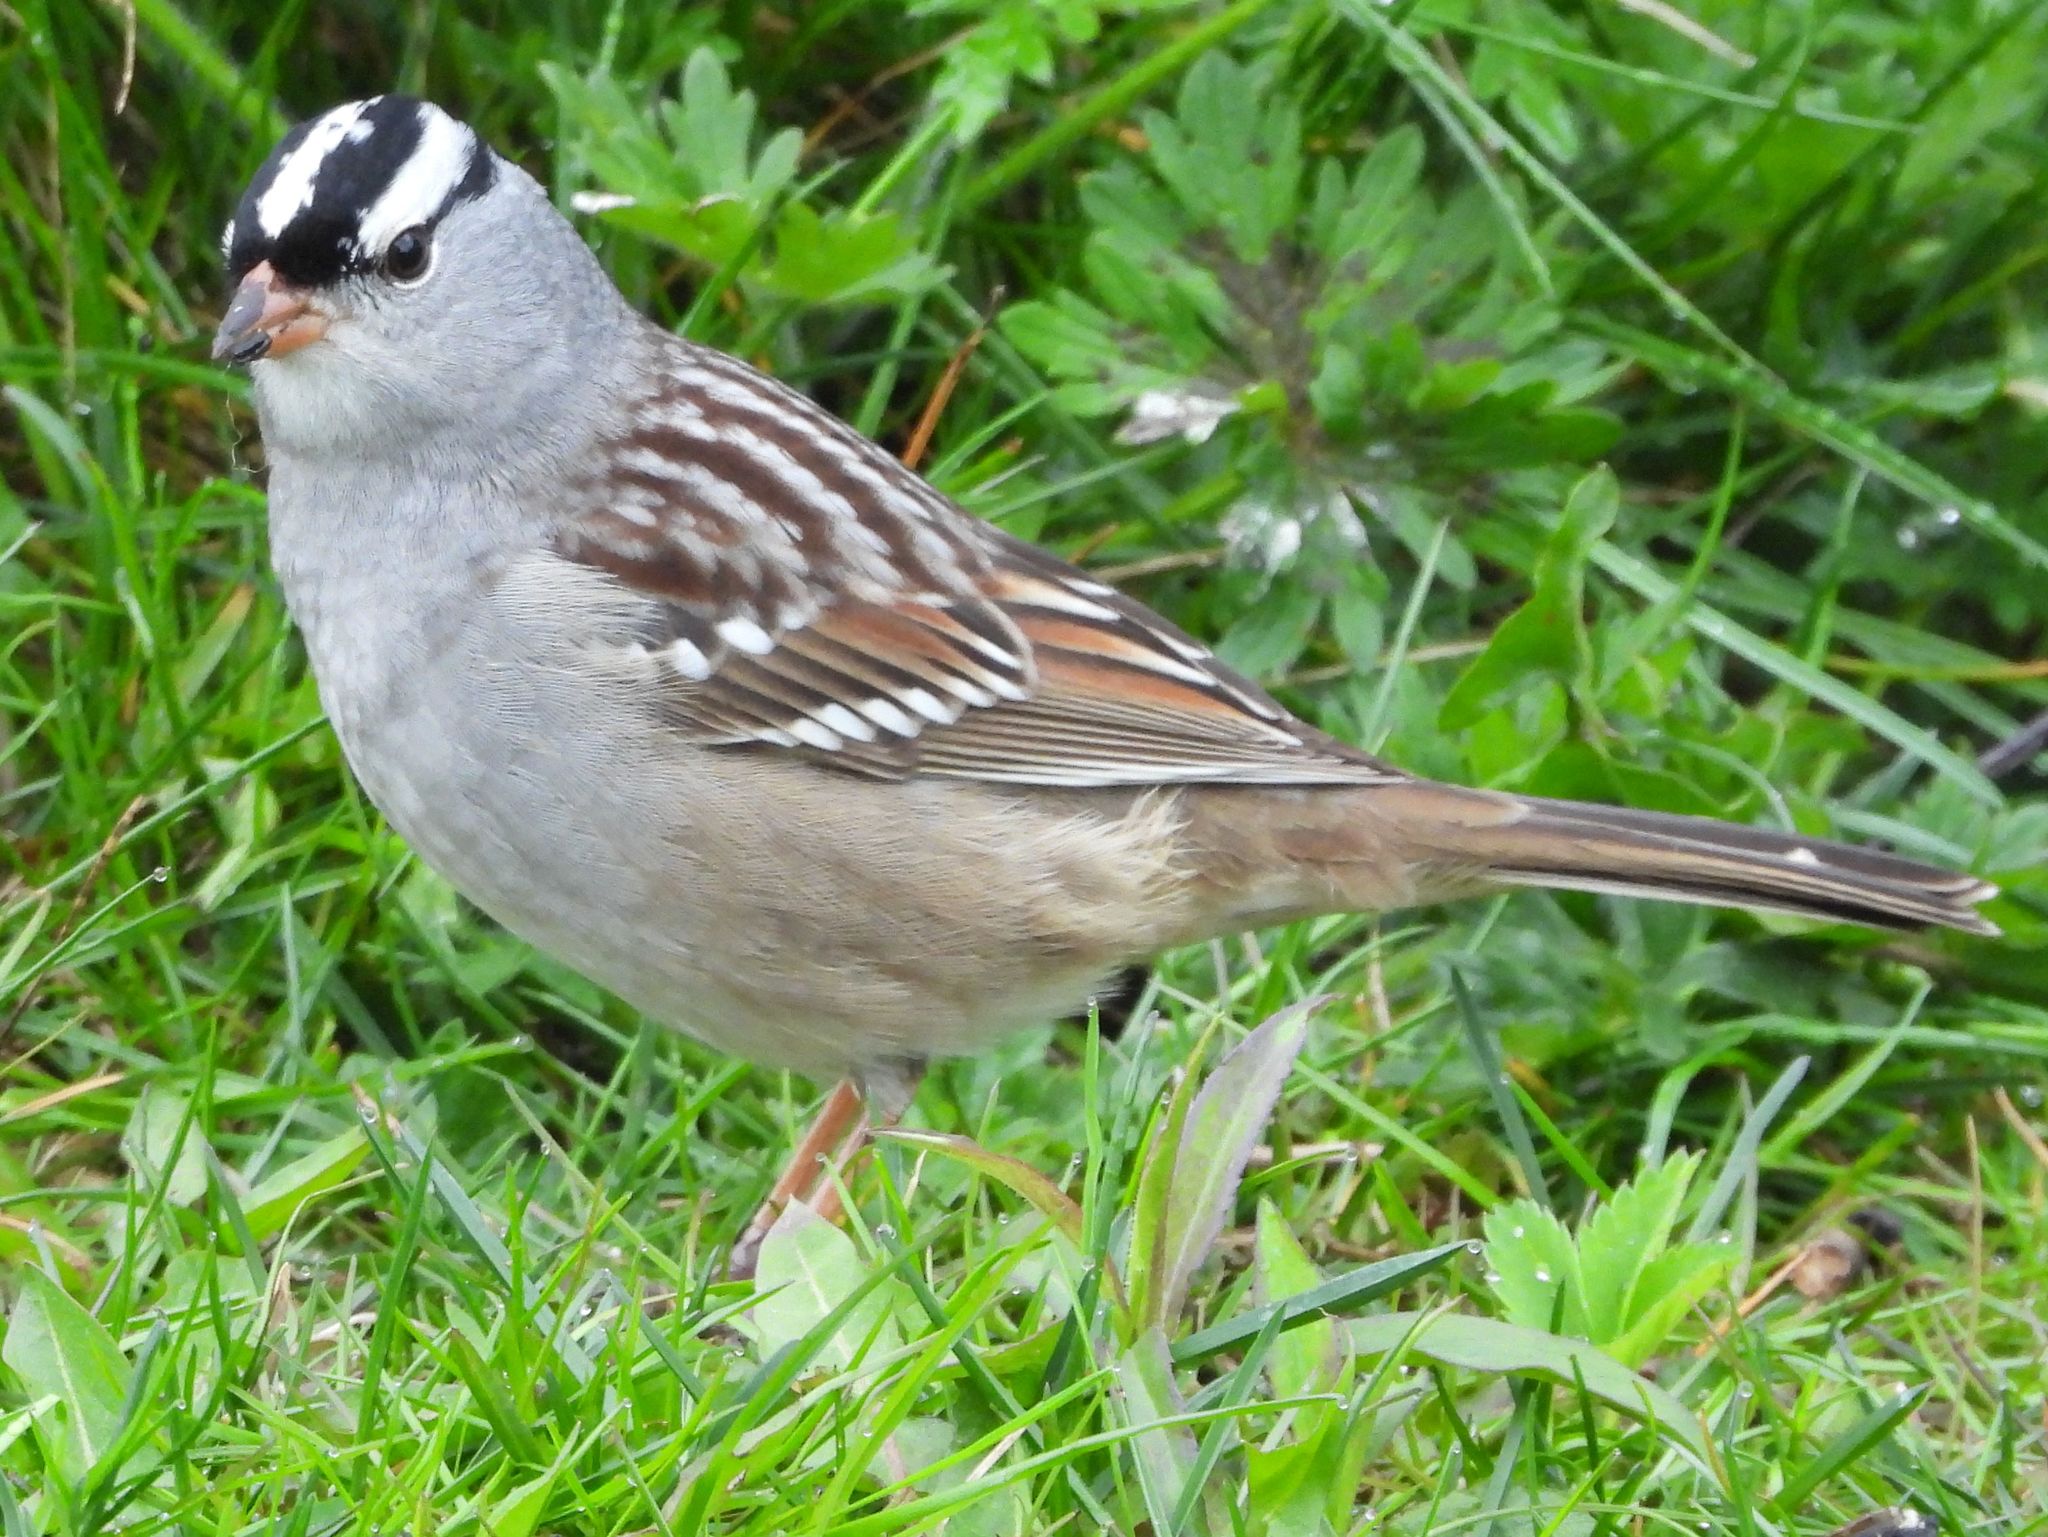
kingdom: Animalia
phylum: Chordata
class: Aves
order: Passeriformes
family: Passerellidae
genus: Zonotrichia
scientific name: Zonotrichia leucophrys
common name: White-crowned sparrow
